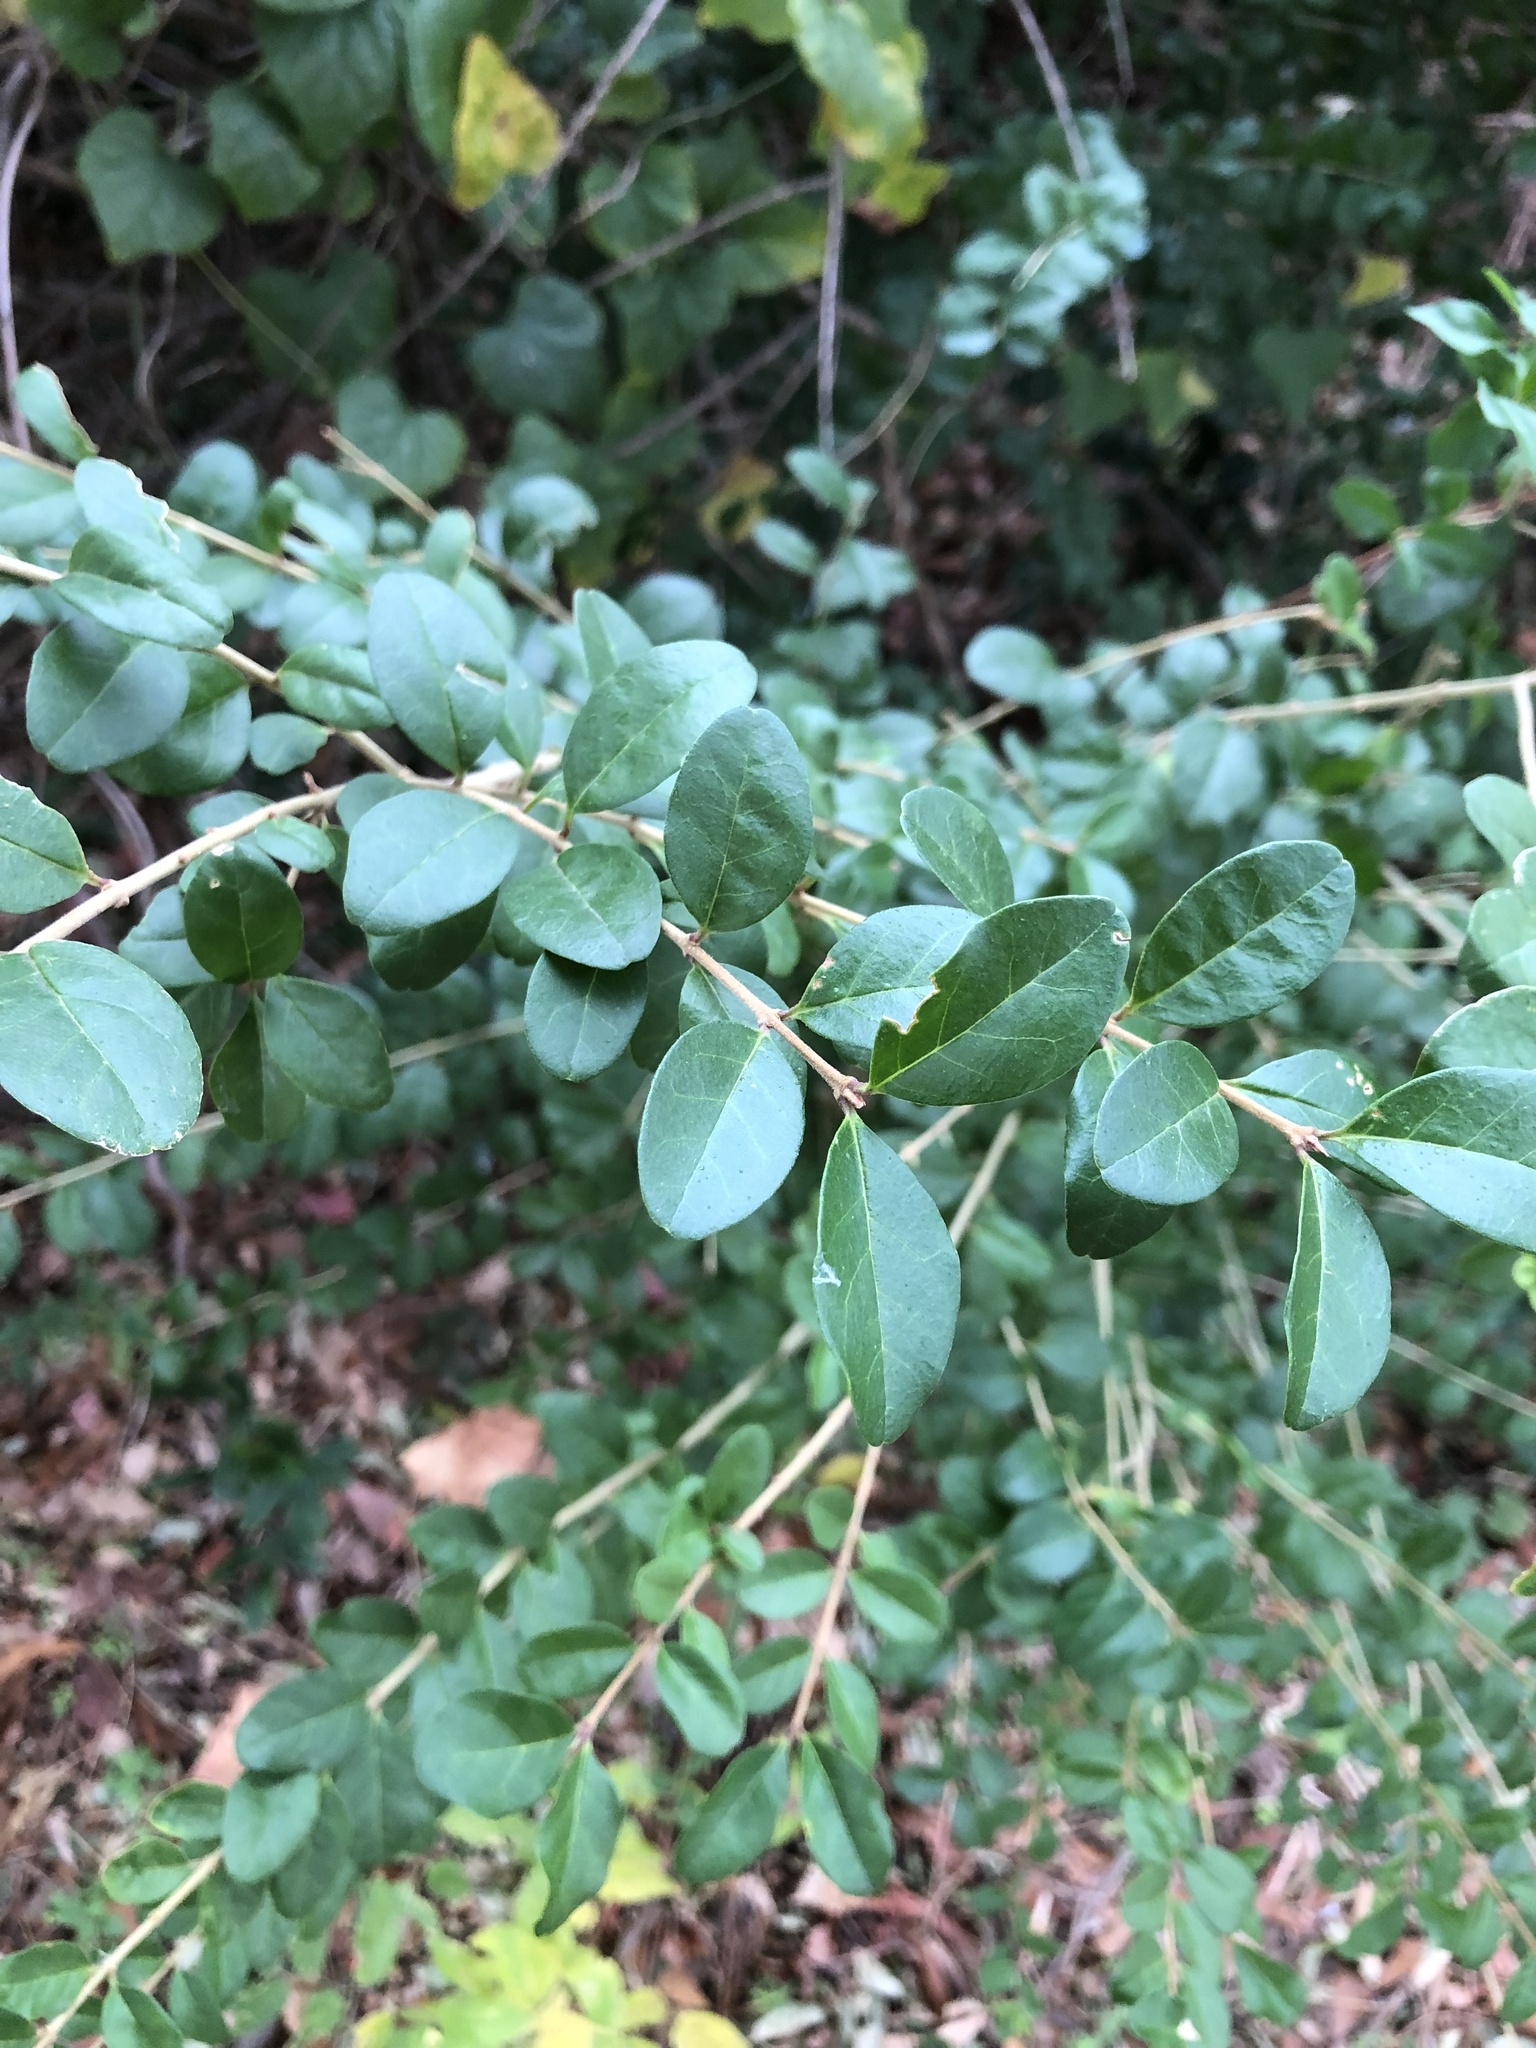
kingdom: Plantae
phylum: Tracheophyta
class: Magnoliopsida
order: Lamiales
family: Oleaceae
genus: Ligustrum
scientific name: Ligustrum sinense
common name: Chinese privet
